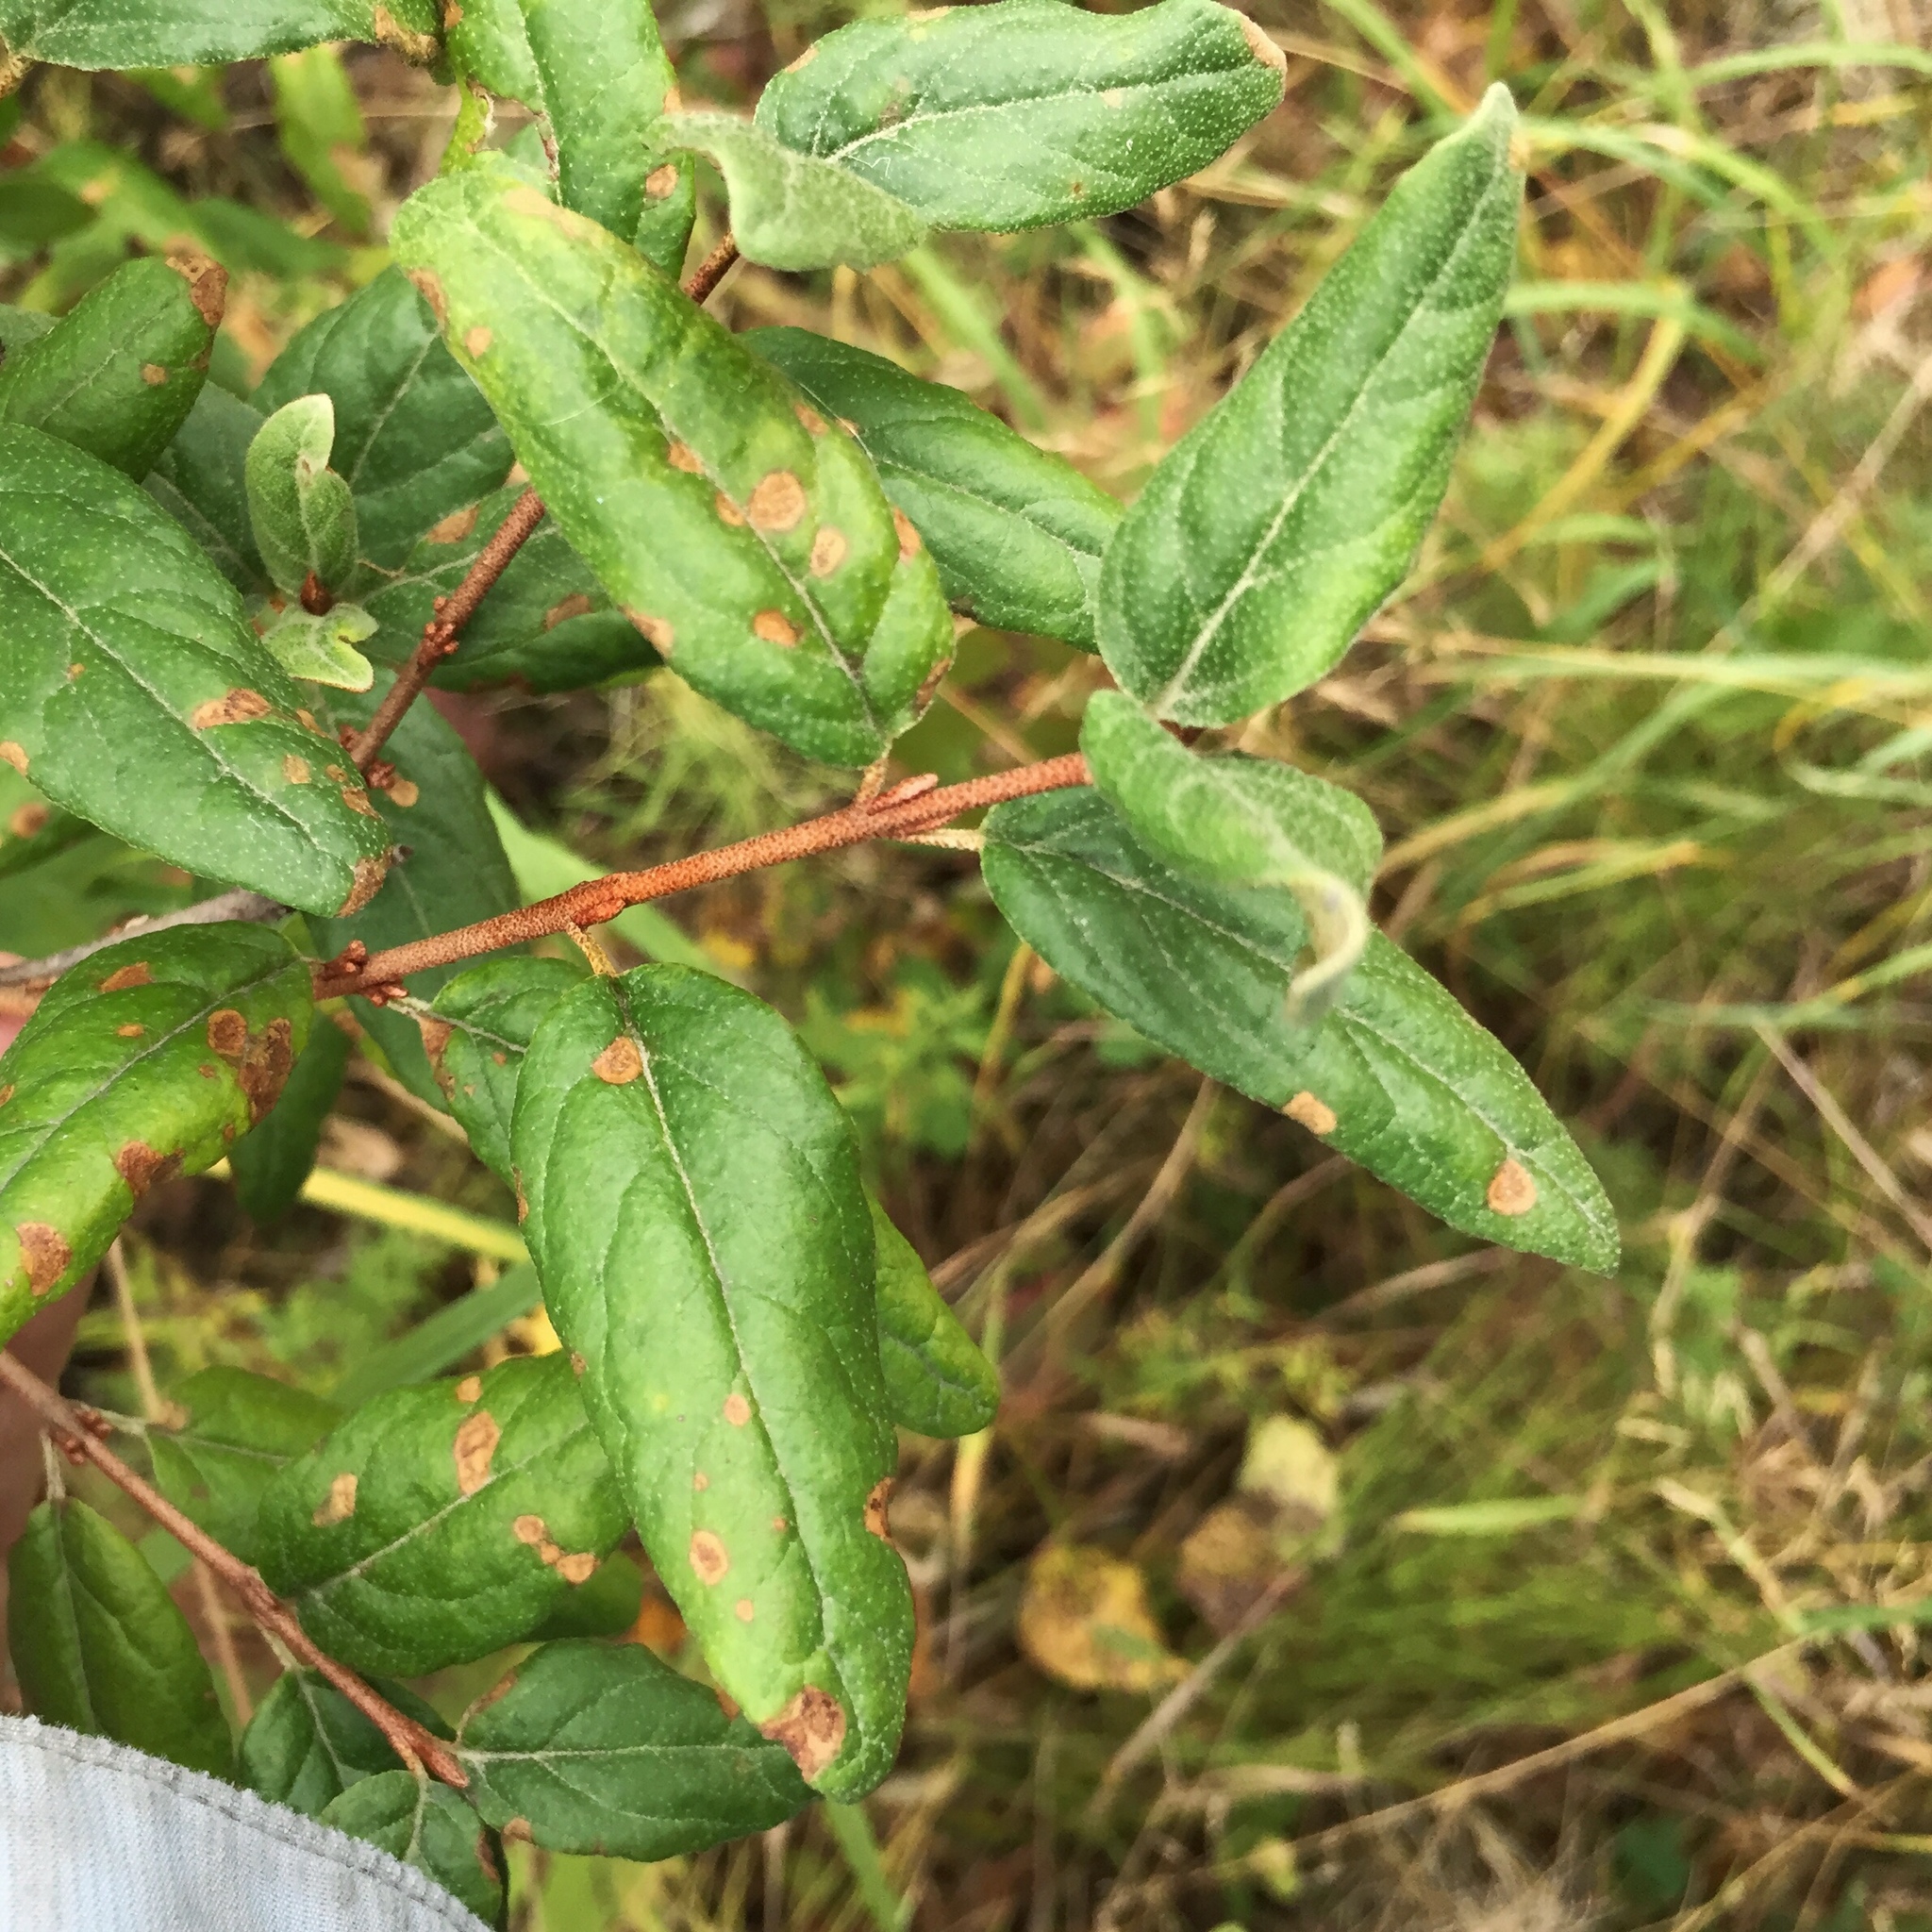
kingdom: Plantae
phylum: Tracheophyta
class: Magnoliopsida
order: Rosales
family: Elaeagnaceae
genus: Shepherdia
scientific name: Shepherdia canadensis
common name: Soapberry
